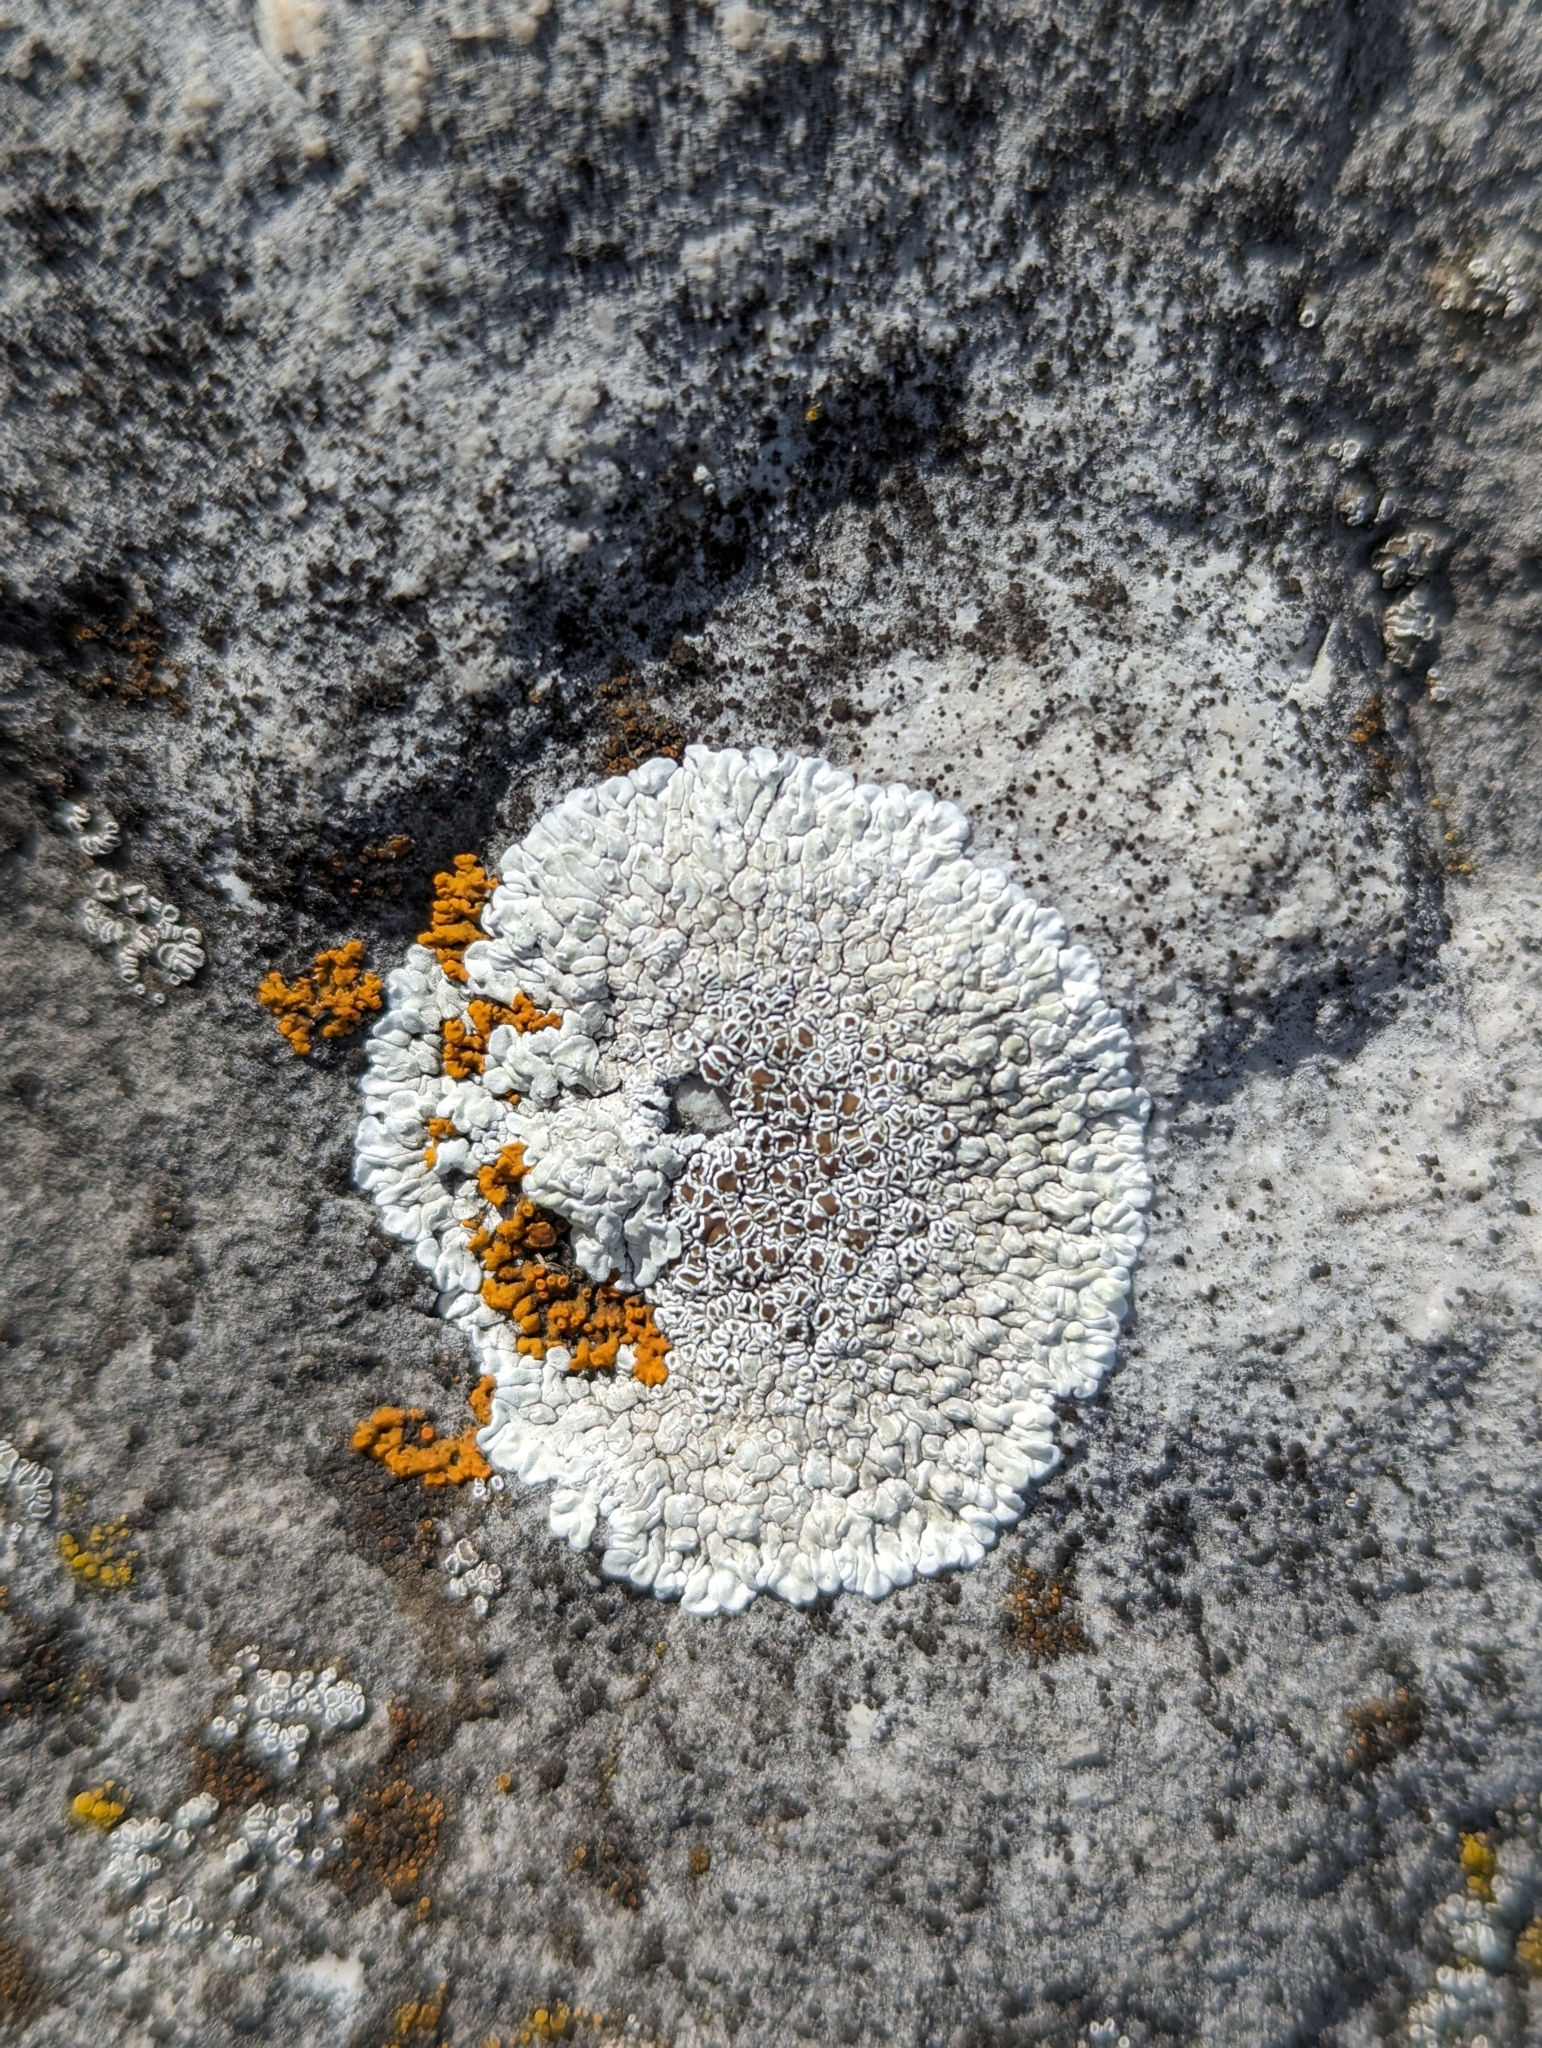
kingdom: Fungi
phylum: Ascomycota
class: Lecanoromycetes
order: Lecanorales
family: Lecanoraceae
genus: Protoparmeliopsis
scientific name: Protoparmeliopsis muralis
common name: Stonewall rim lichen
